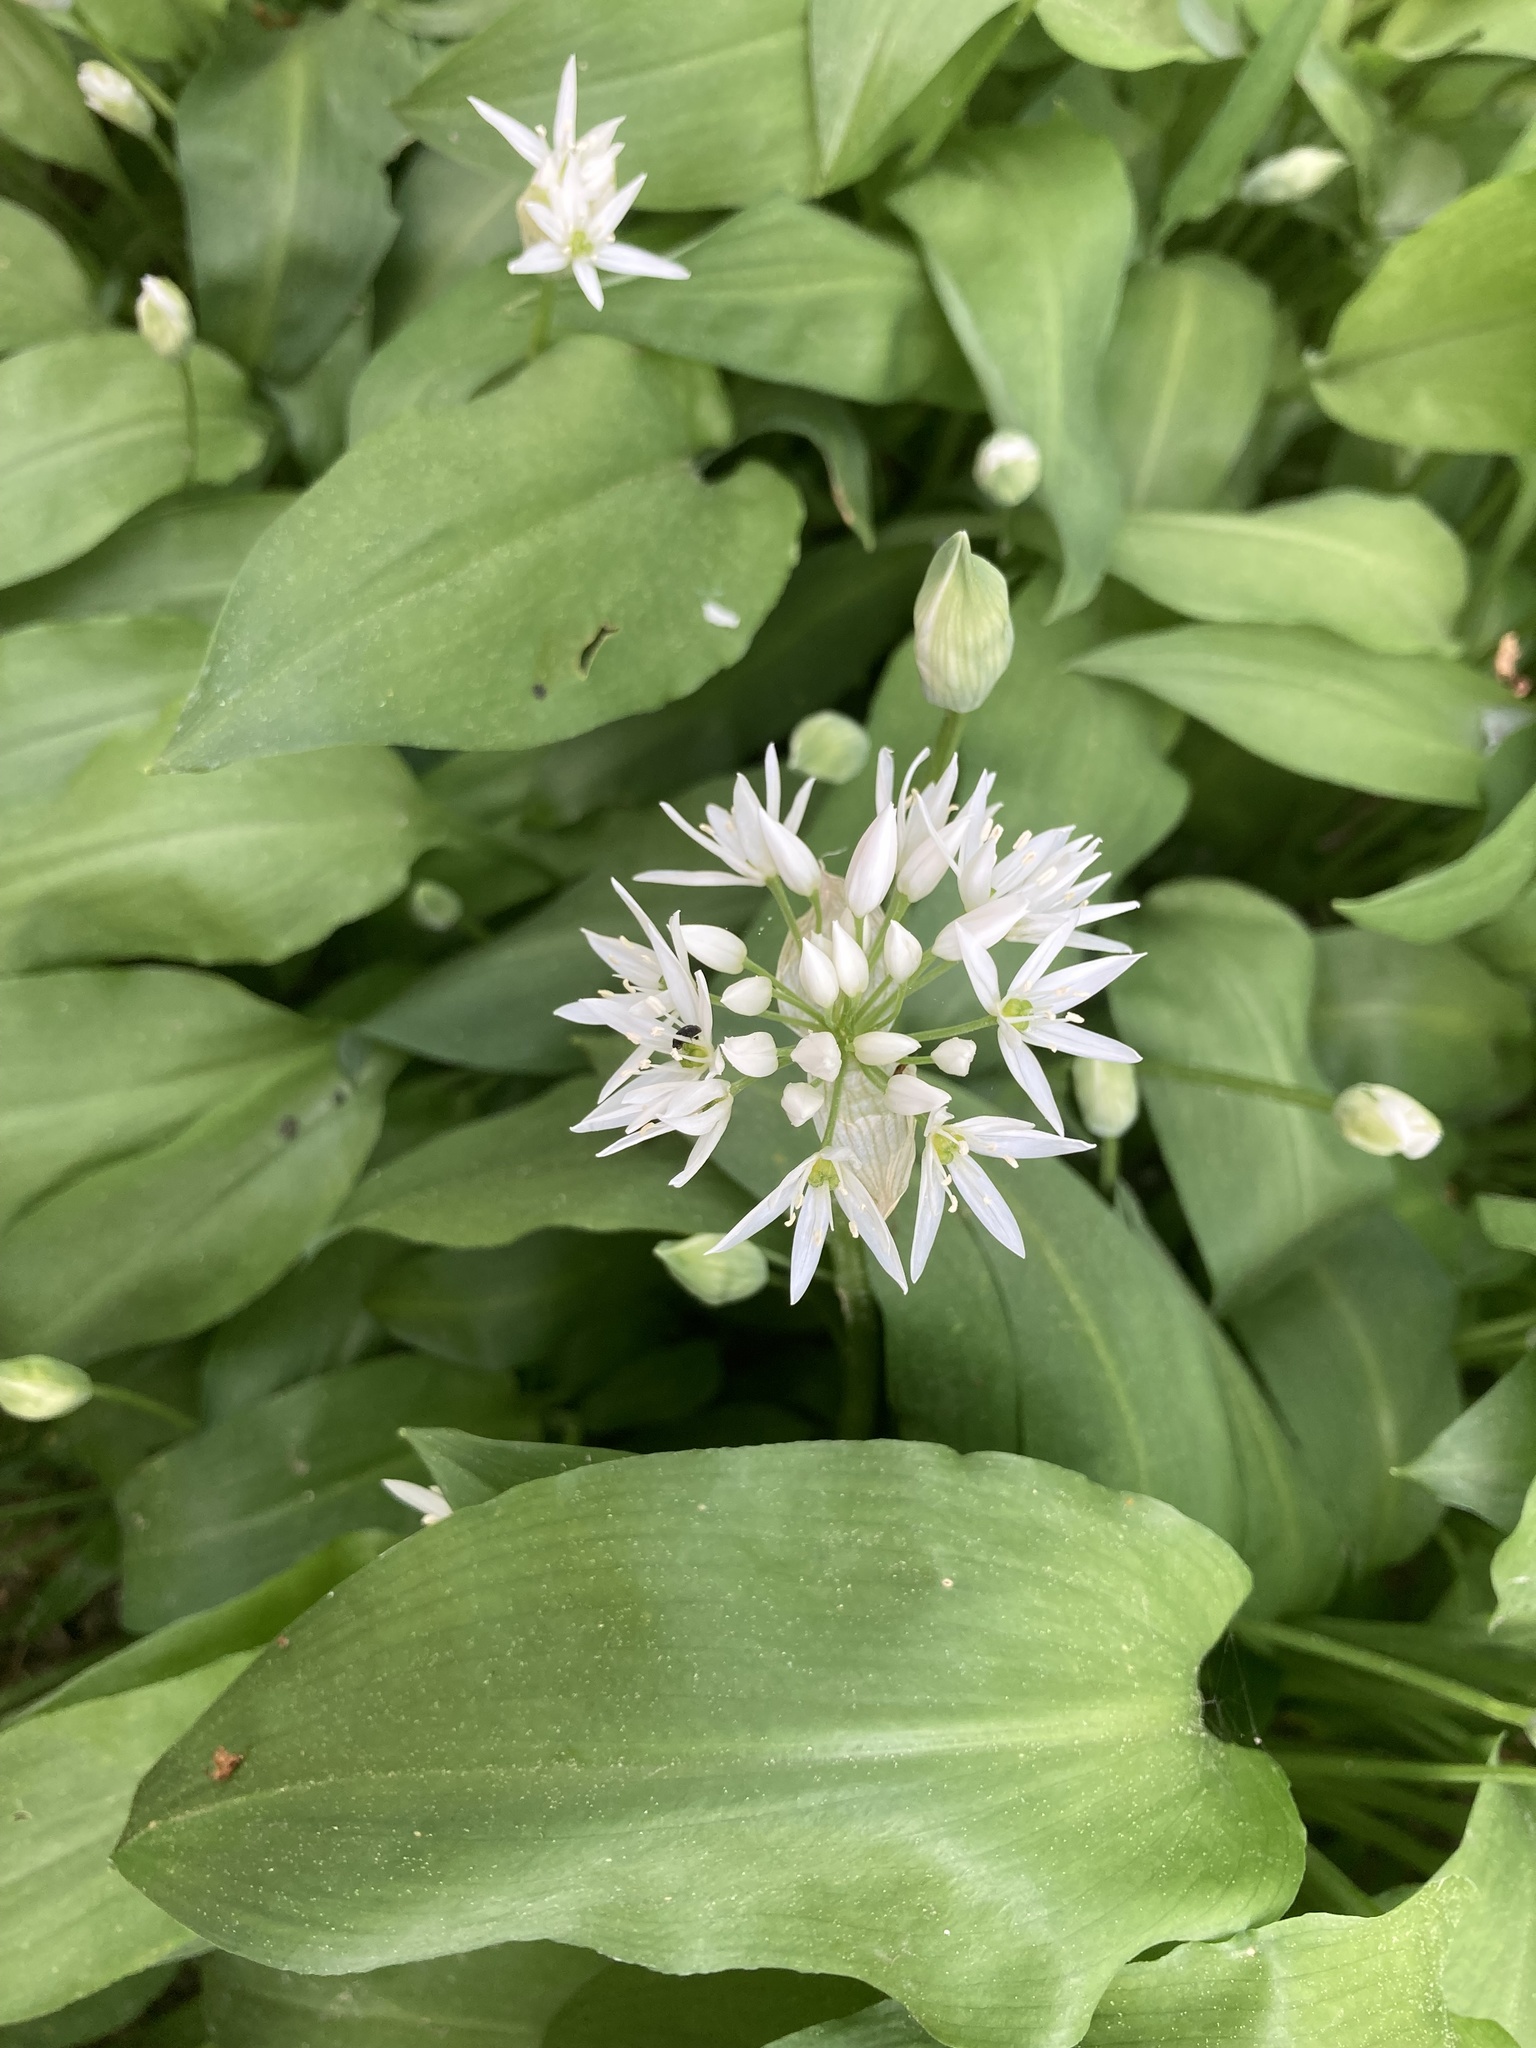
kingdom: Plantae
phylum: Tracheophyta
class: Liliopsida
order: Asparagales
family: Amaryllidaceae
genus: Allium
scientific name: Allium ursinum
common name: Ramsons
